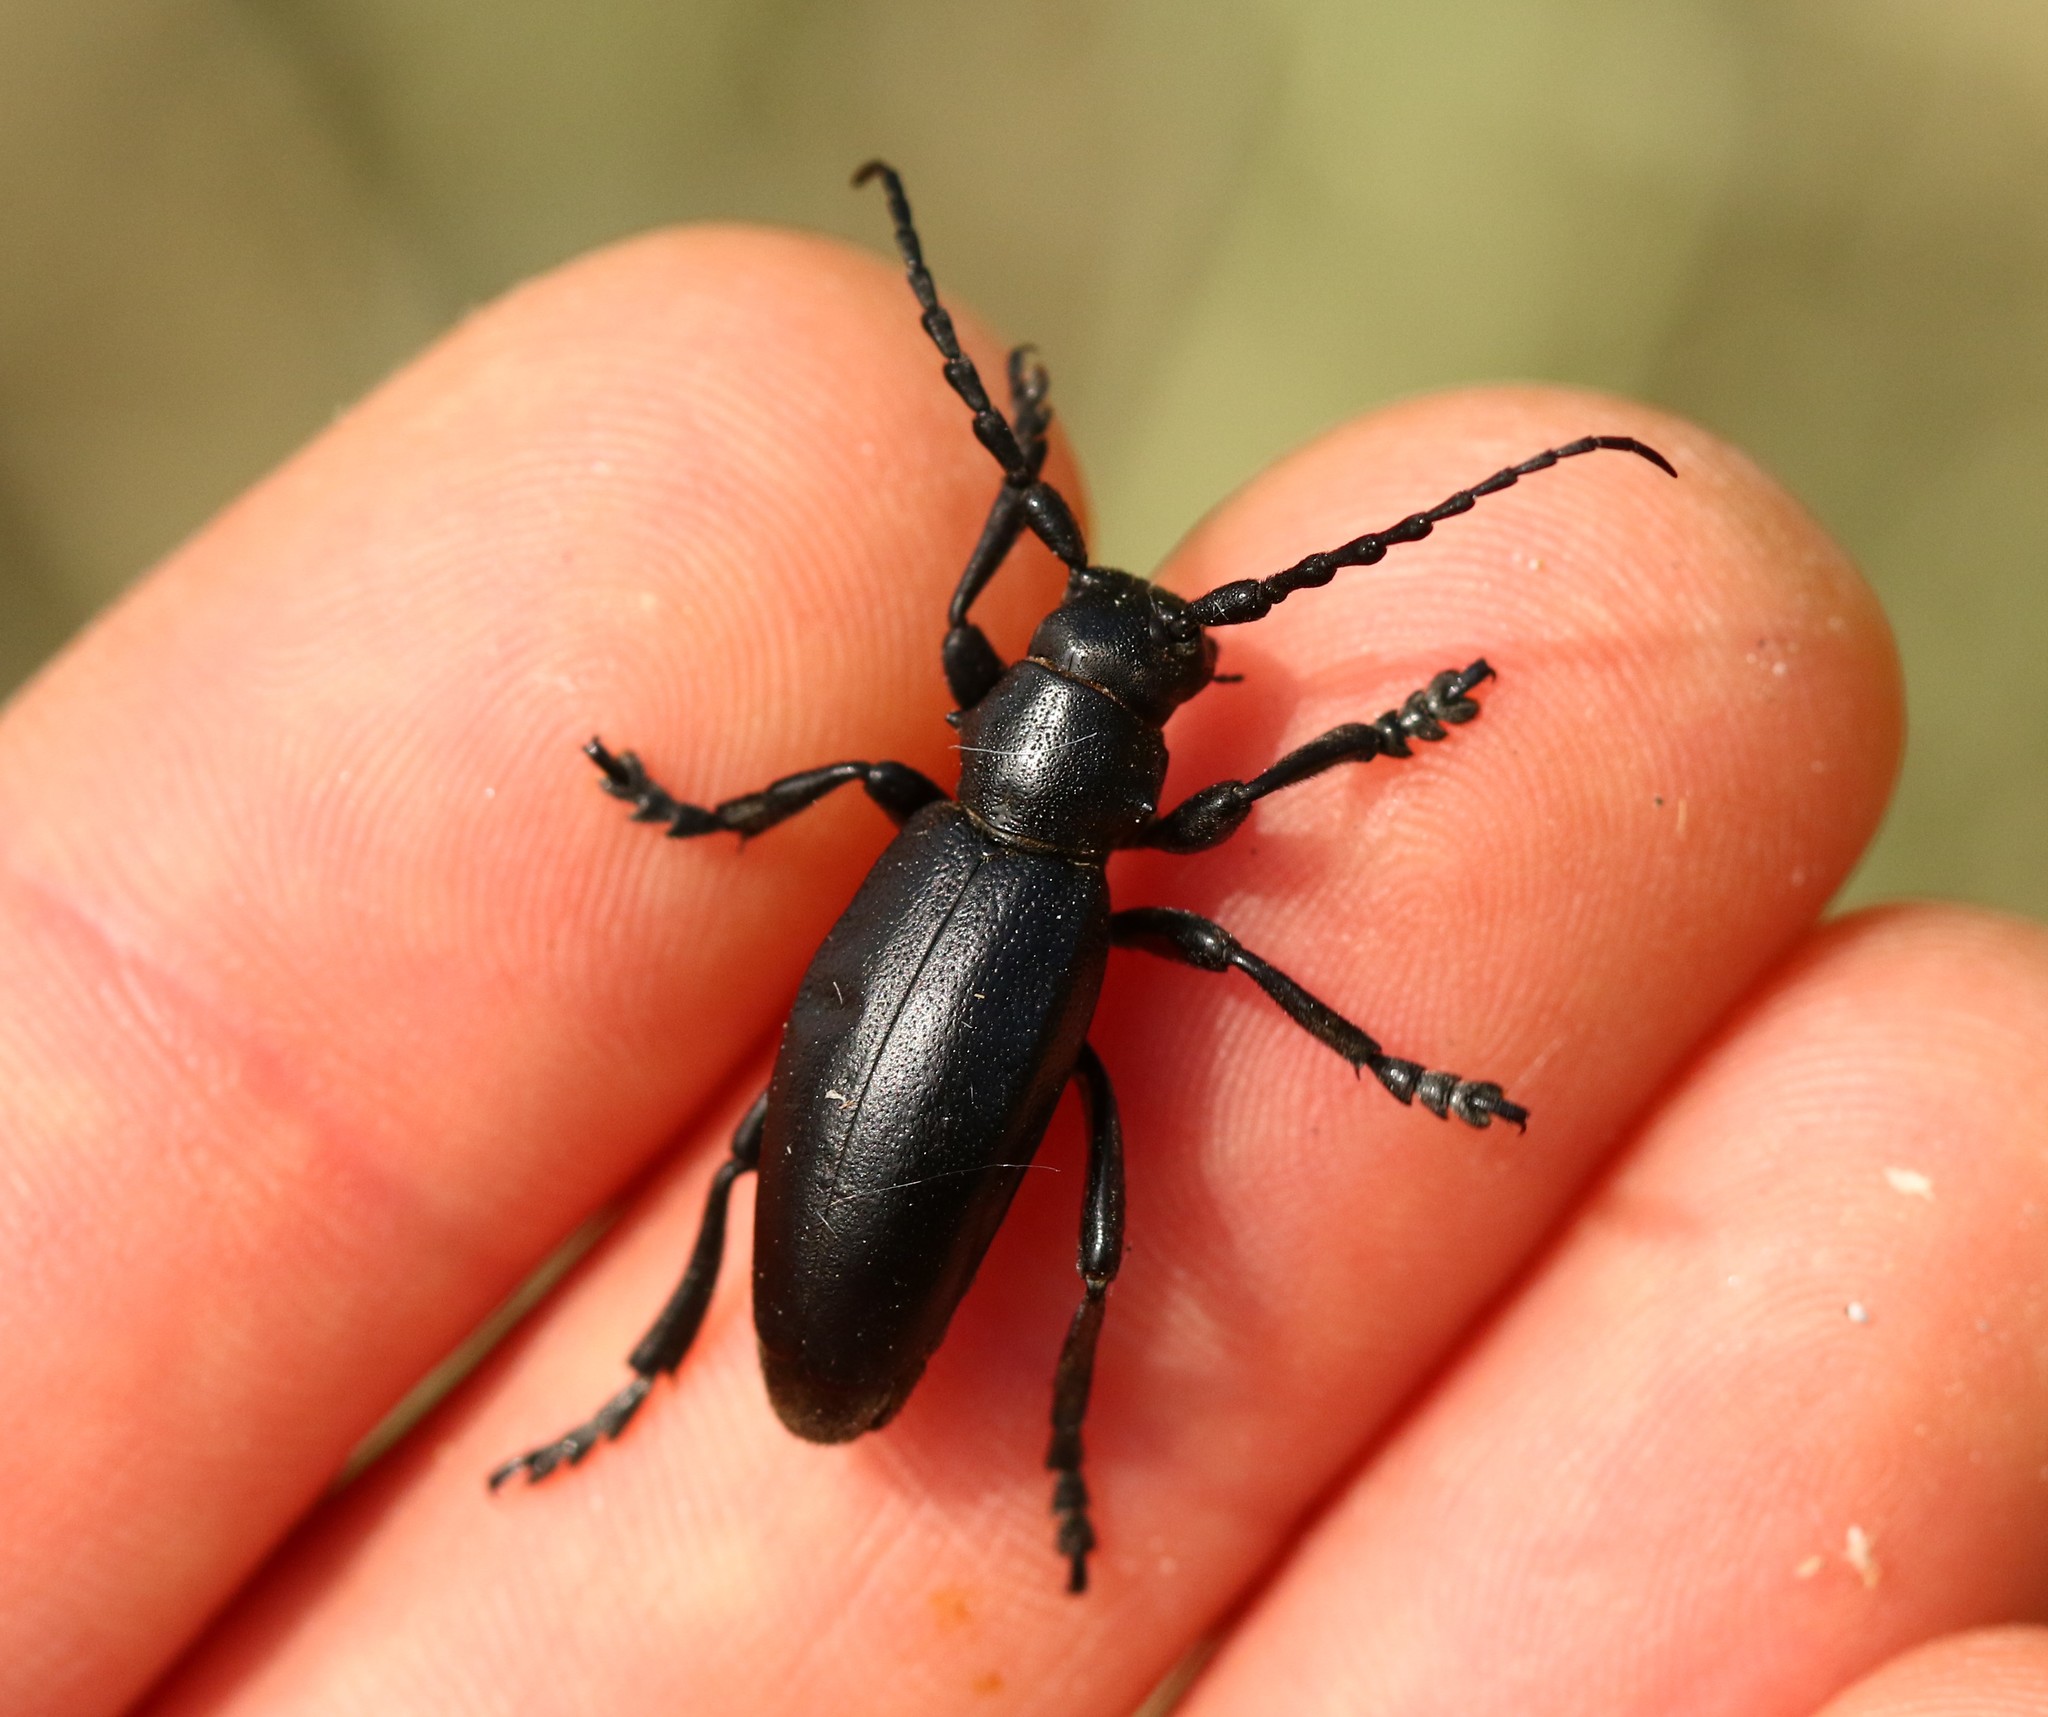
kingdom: Animalia
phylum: Arthropoda
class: Insecta
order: Coleoptera
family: Cerambycidae
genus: Dorcadion
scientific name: Dorcadion aethiops
